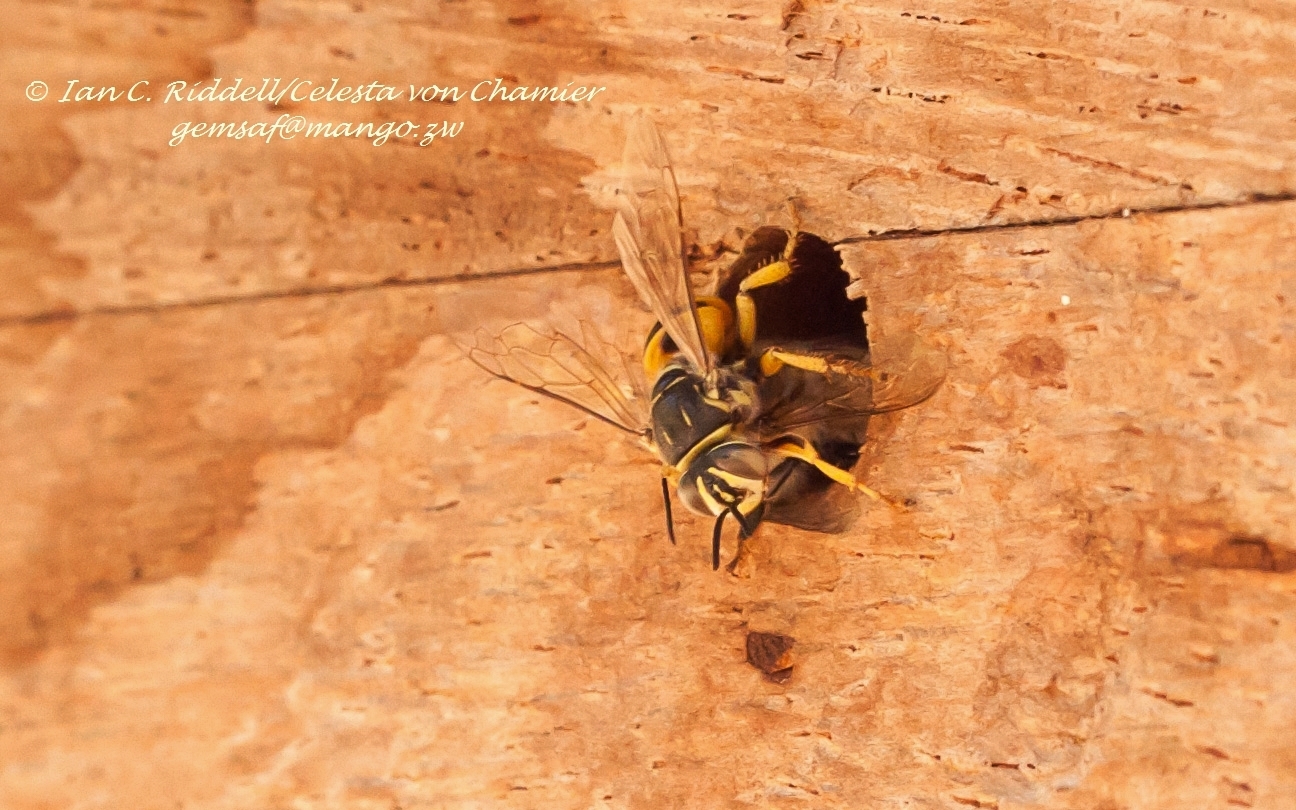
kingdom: Animalia
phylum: Arthropoda
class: Insecta
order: Hymenoptera
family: Apidae
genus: Apis
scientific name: Apis mellifera
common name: Honey bee
